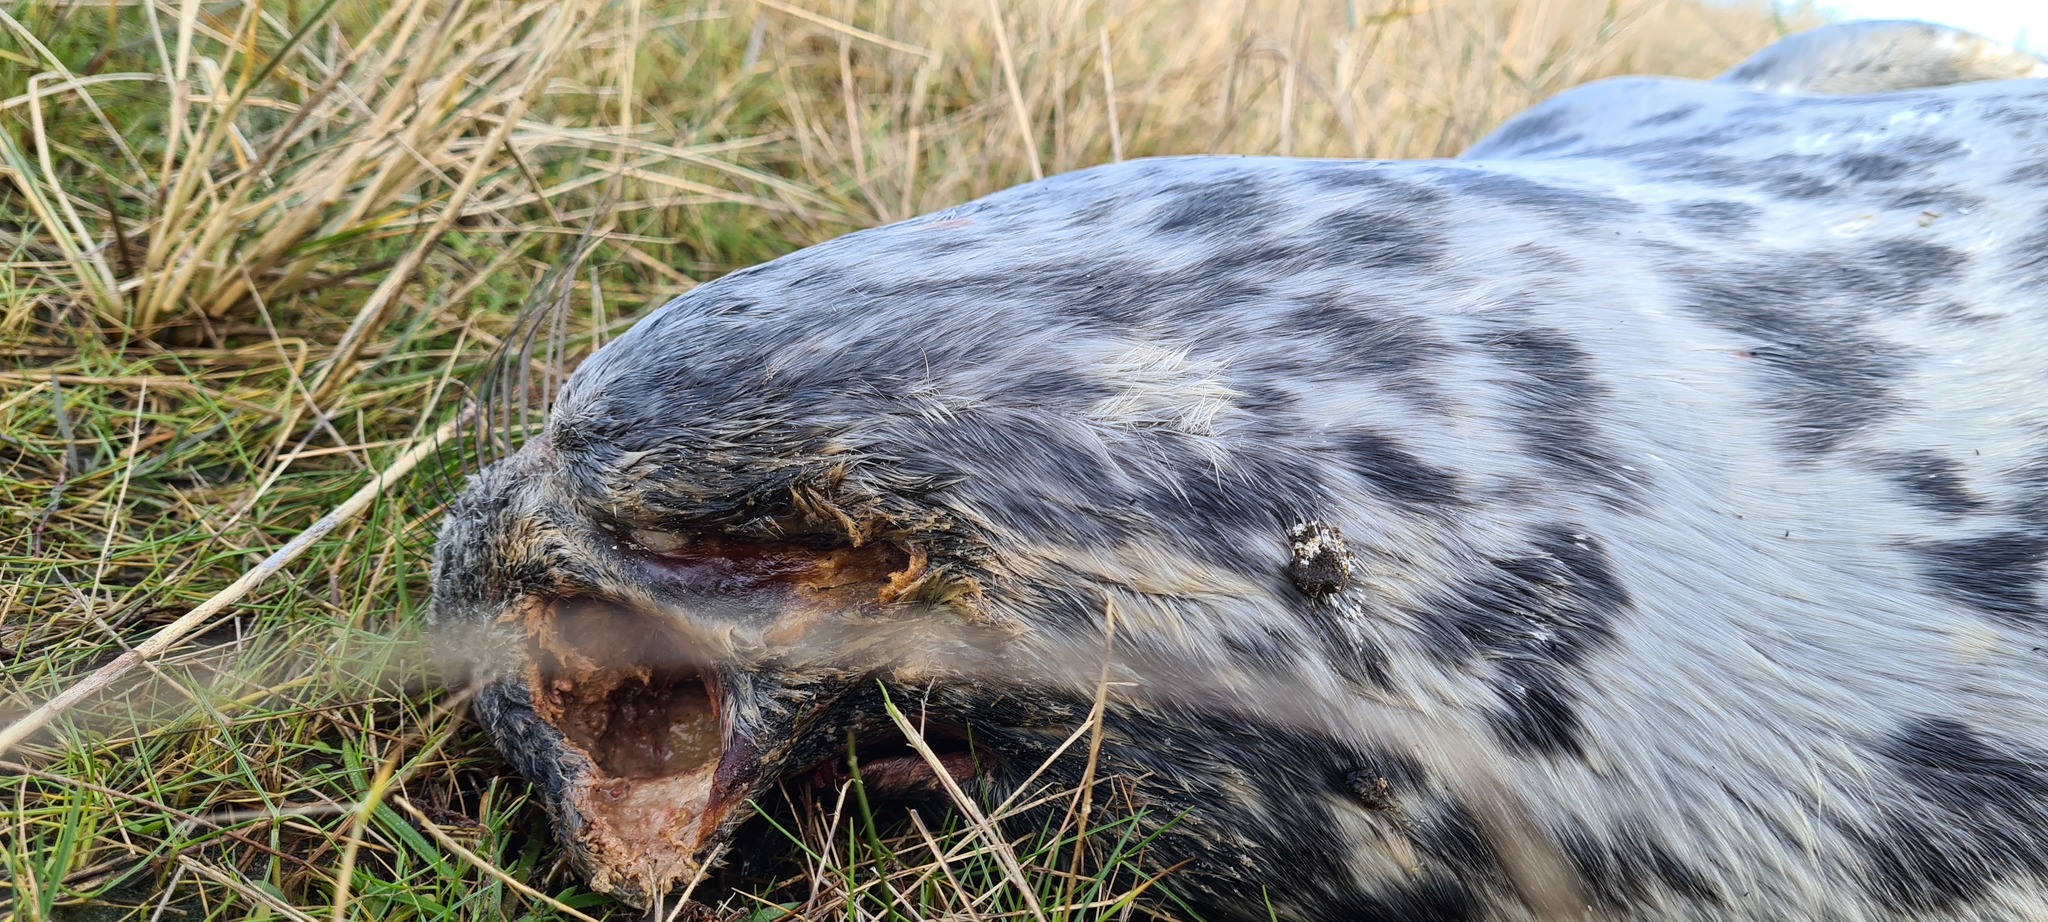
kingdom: Animalia
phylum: Chordata
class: Mammalia
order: Carnivora
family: Phocidae
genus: Halichoerus
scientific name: Halichoerus grypus
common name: Grey seal
